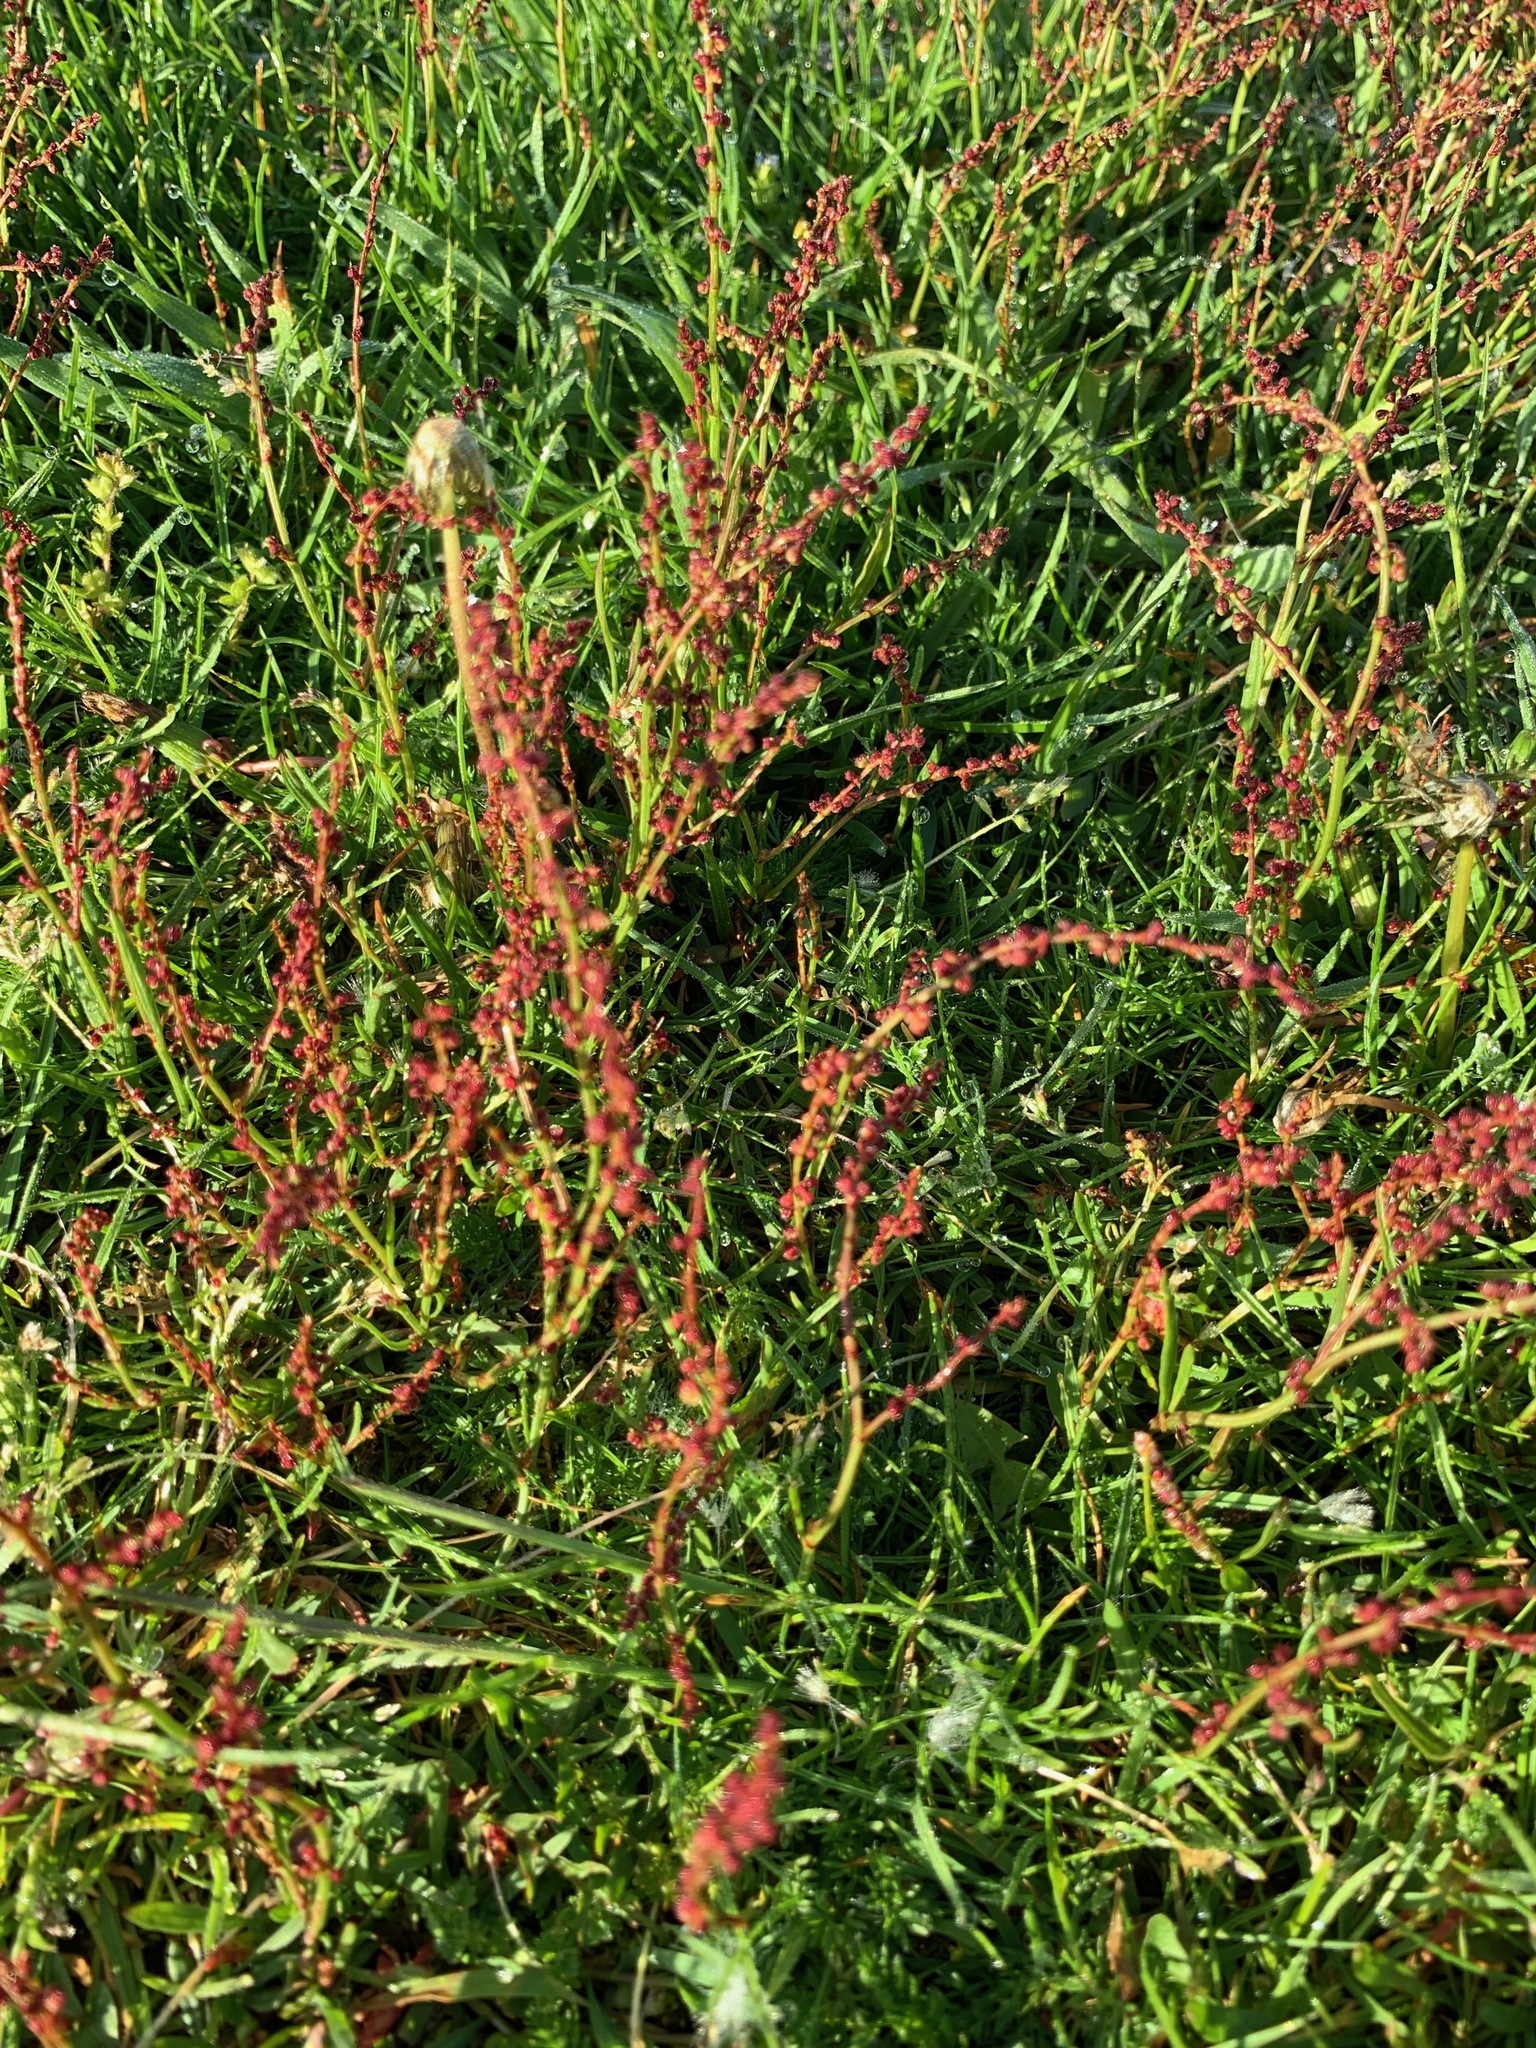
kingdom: Plantae
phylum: Tracheophyta
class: Magnoliopsida
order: Caryophyllales
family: Polygonaceae
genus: Rumex
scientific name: Rumex acetosella
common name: Common sheep sorrel
